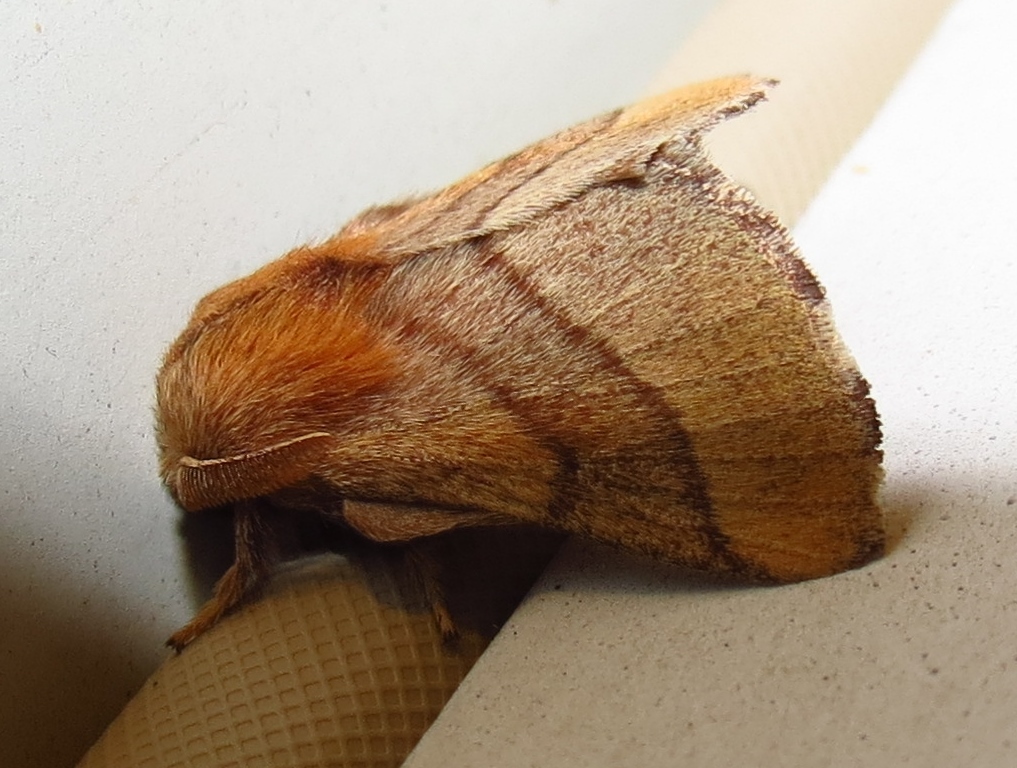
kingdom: Animalia
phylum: Arthropoda
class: Insecta
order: Lepidoptera
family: Lasiocampidae
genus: Malacosoma
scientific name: Malacosoma disstria
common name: Forest tent caterpillar
